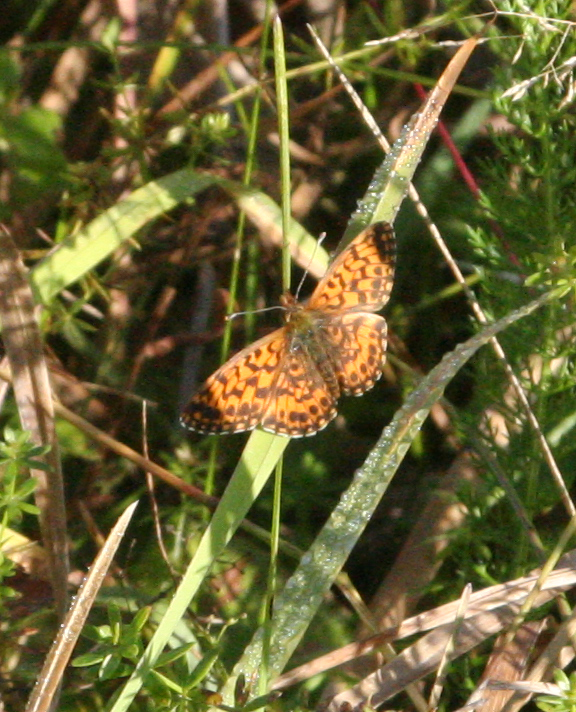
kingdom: Animalia
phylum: Arthropoda
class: Insecta
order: Lepidoptera
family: Nymphalidae
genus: Boloria
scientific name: Boloria dia
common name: Weaver's fritillary
